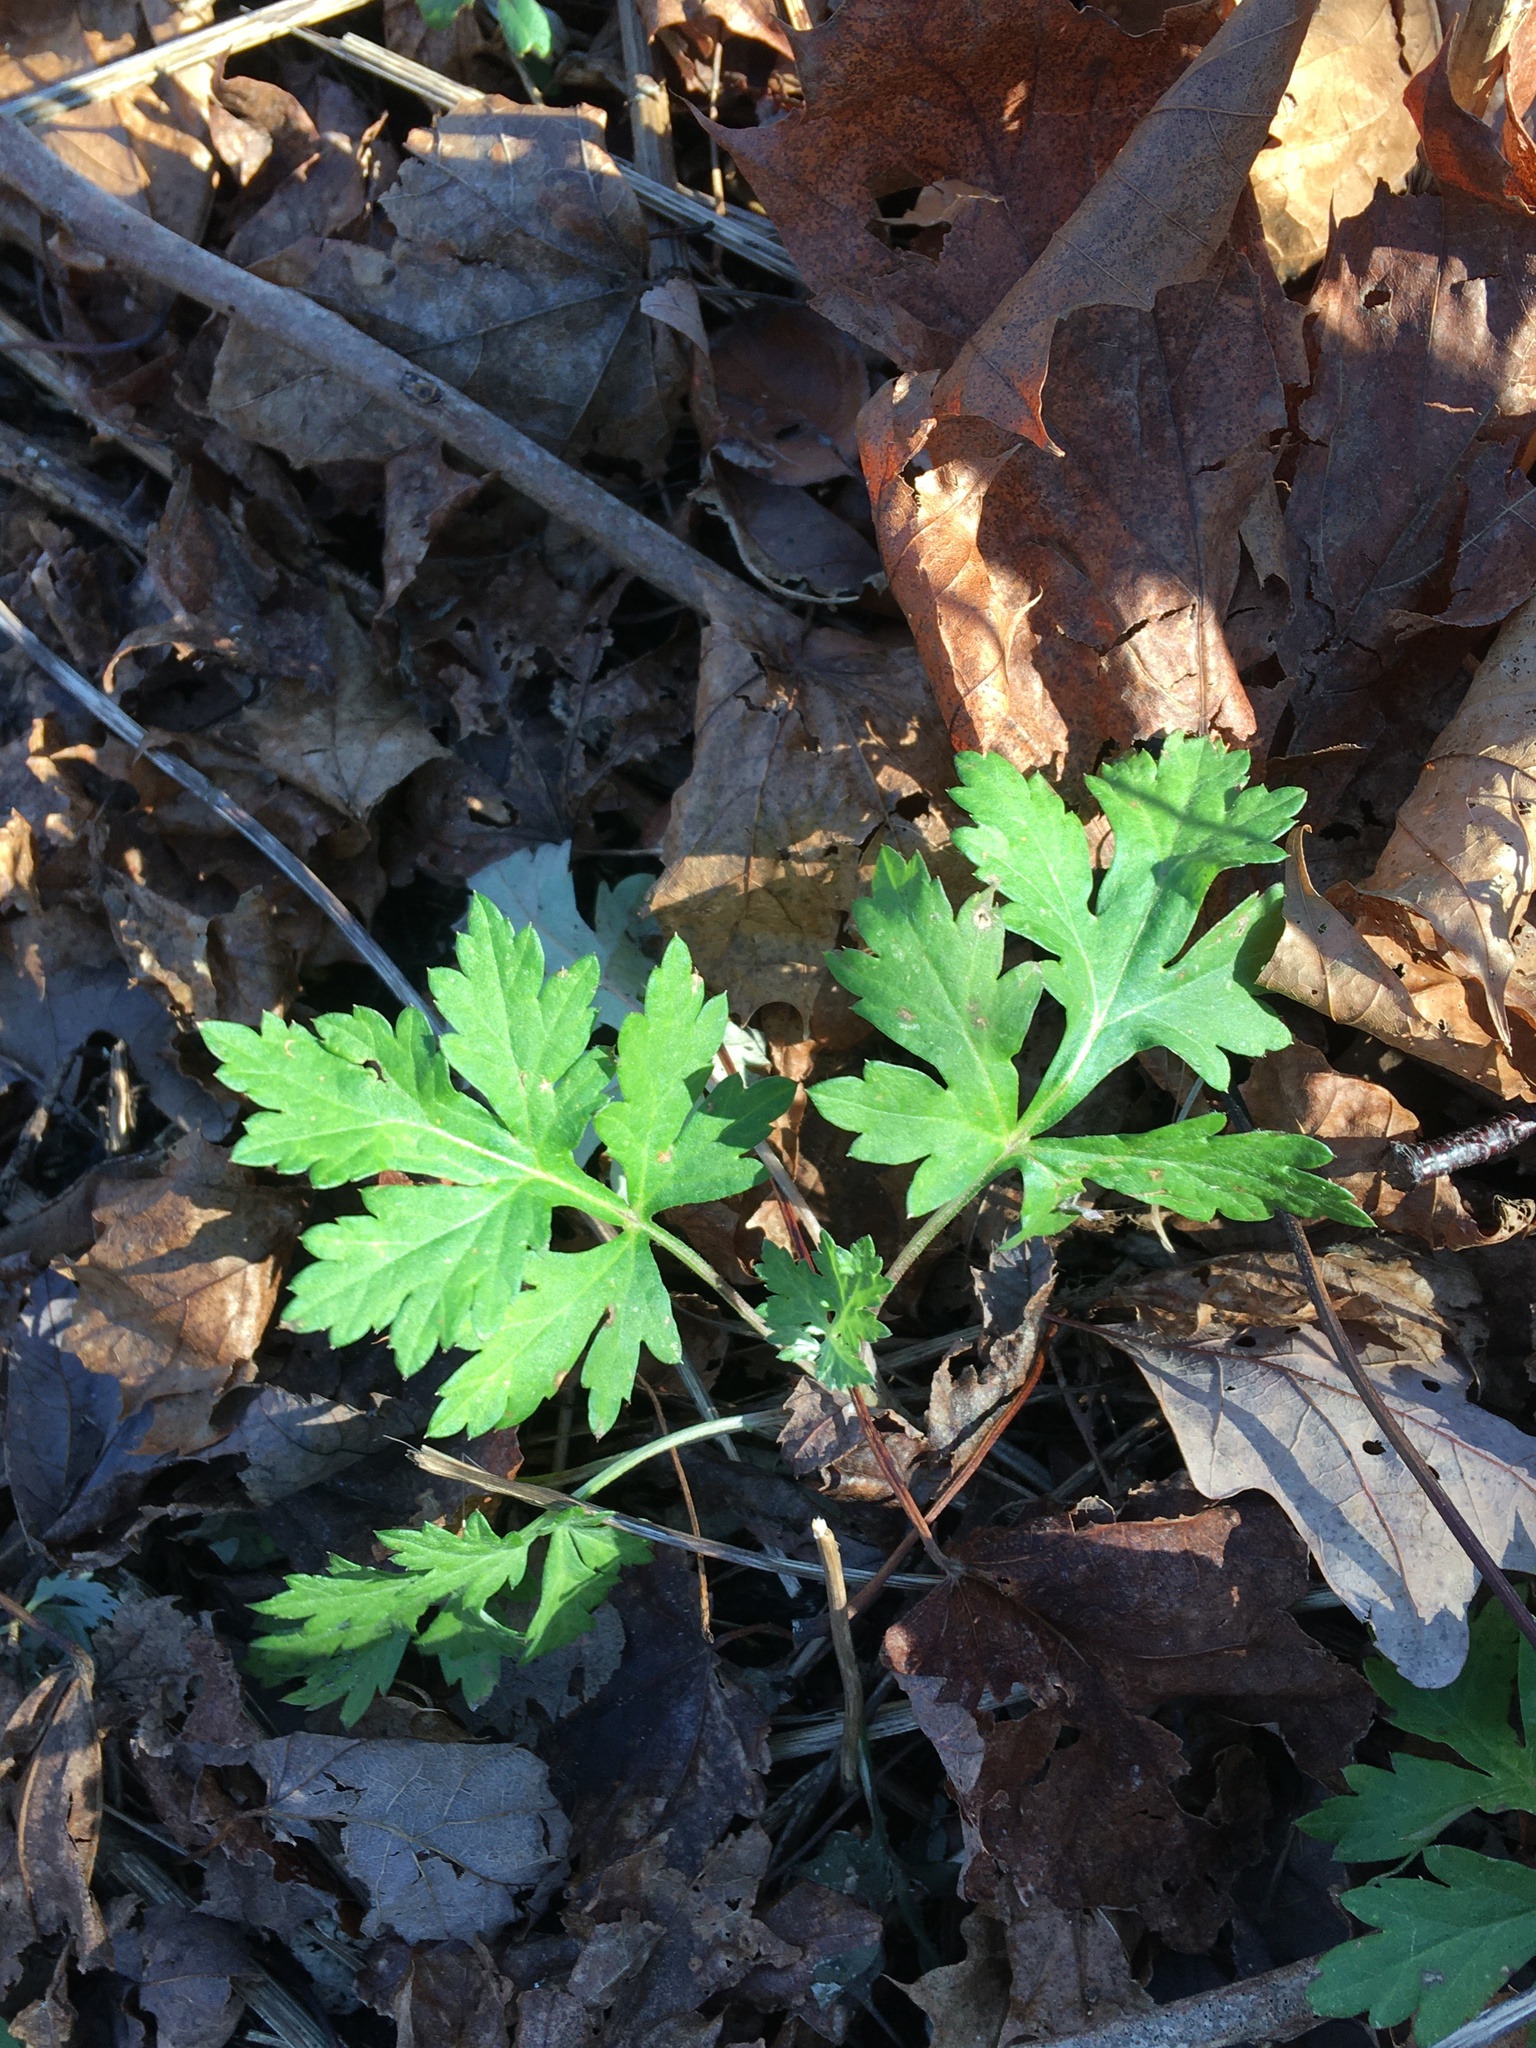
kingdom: Plantae
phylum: Tracheophyta
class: Magnoliopsida
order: Asterales
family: Asteraceae
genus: Artemisia
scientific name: Artemisia vulgaris
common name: Mugwort
